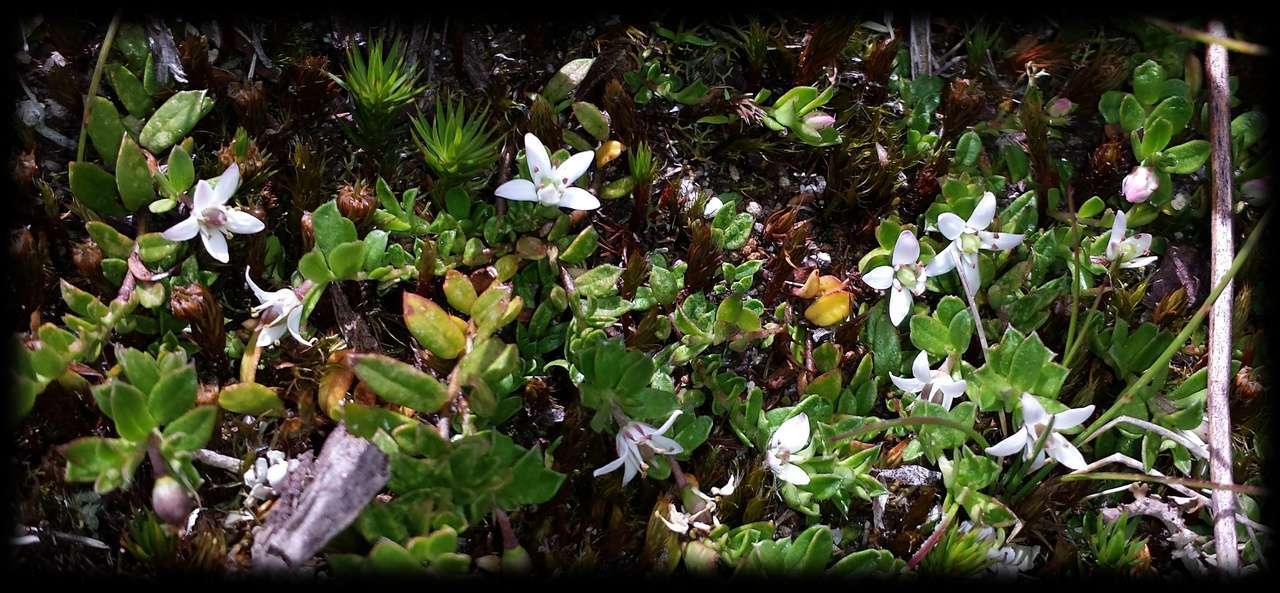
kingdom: Plantae
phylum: Tracheophyta
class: Magnoliopsida
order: Apiales
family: Pittosporaceae
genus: Rhytidosporum
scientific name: Rhytidosporum inconspicuum
